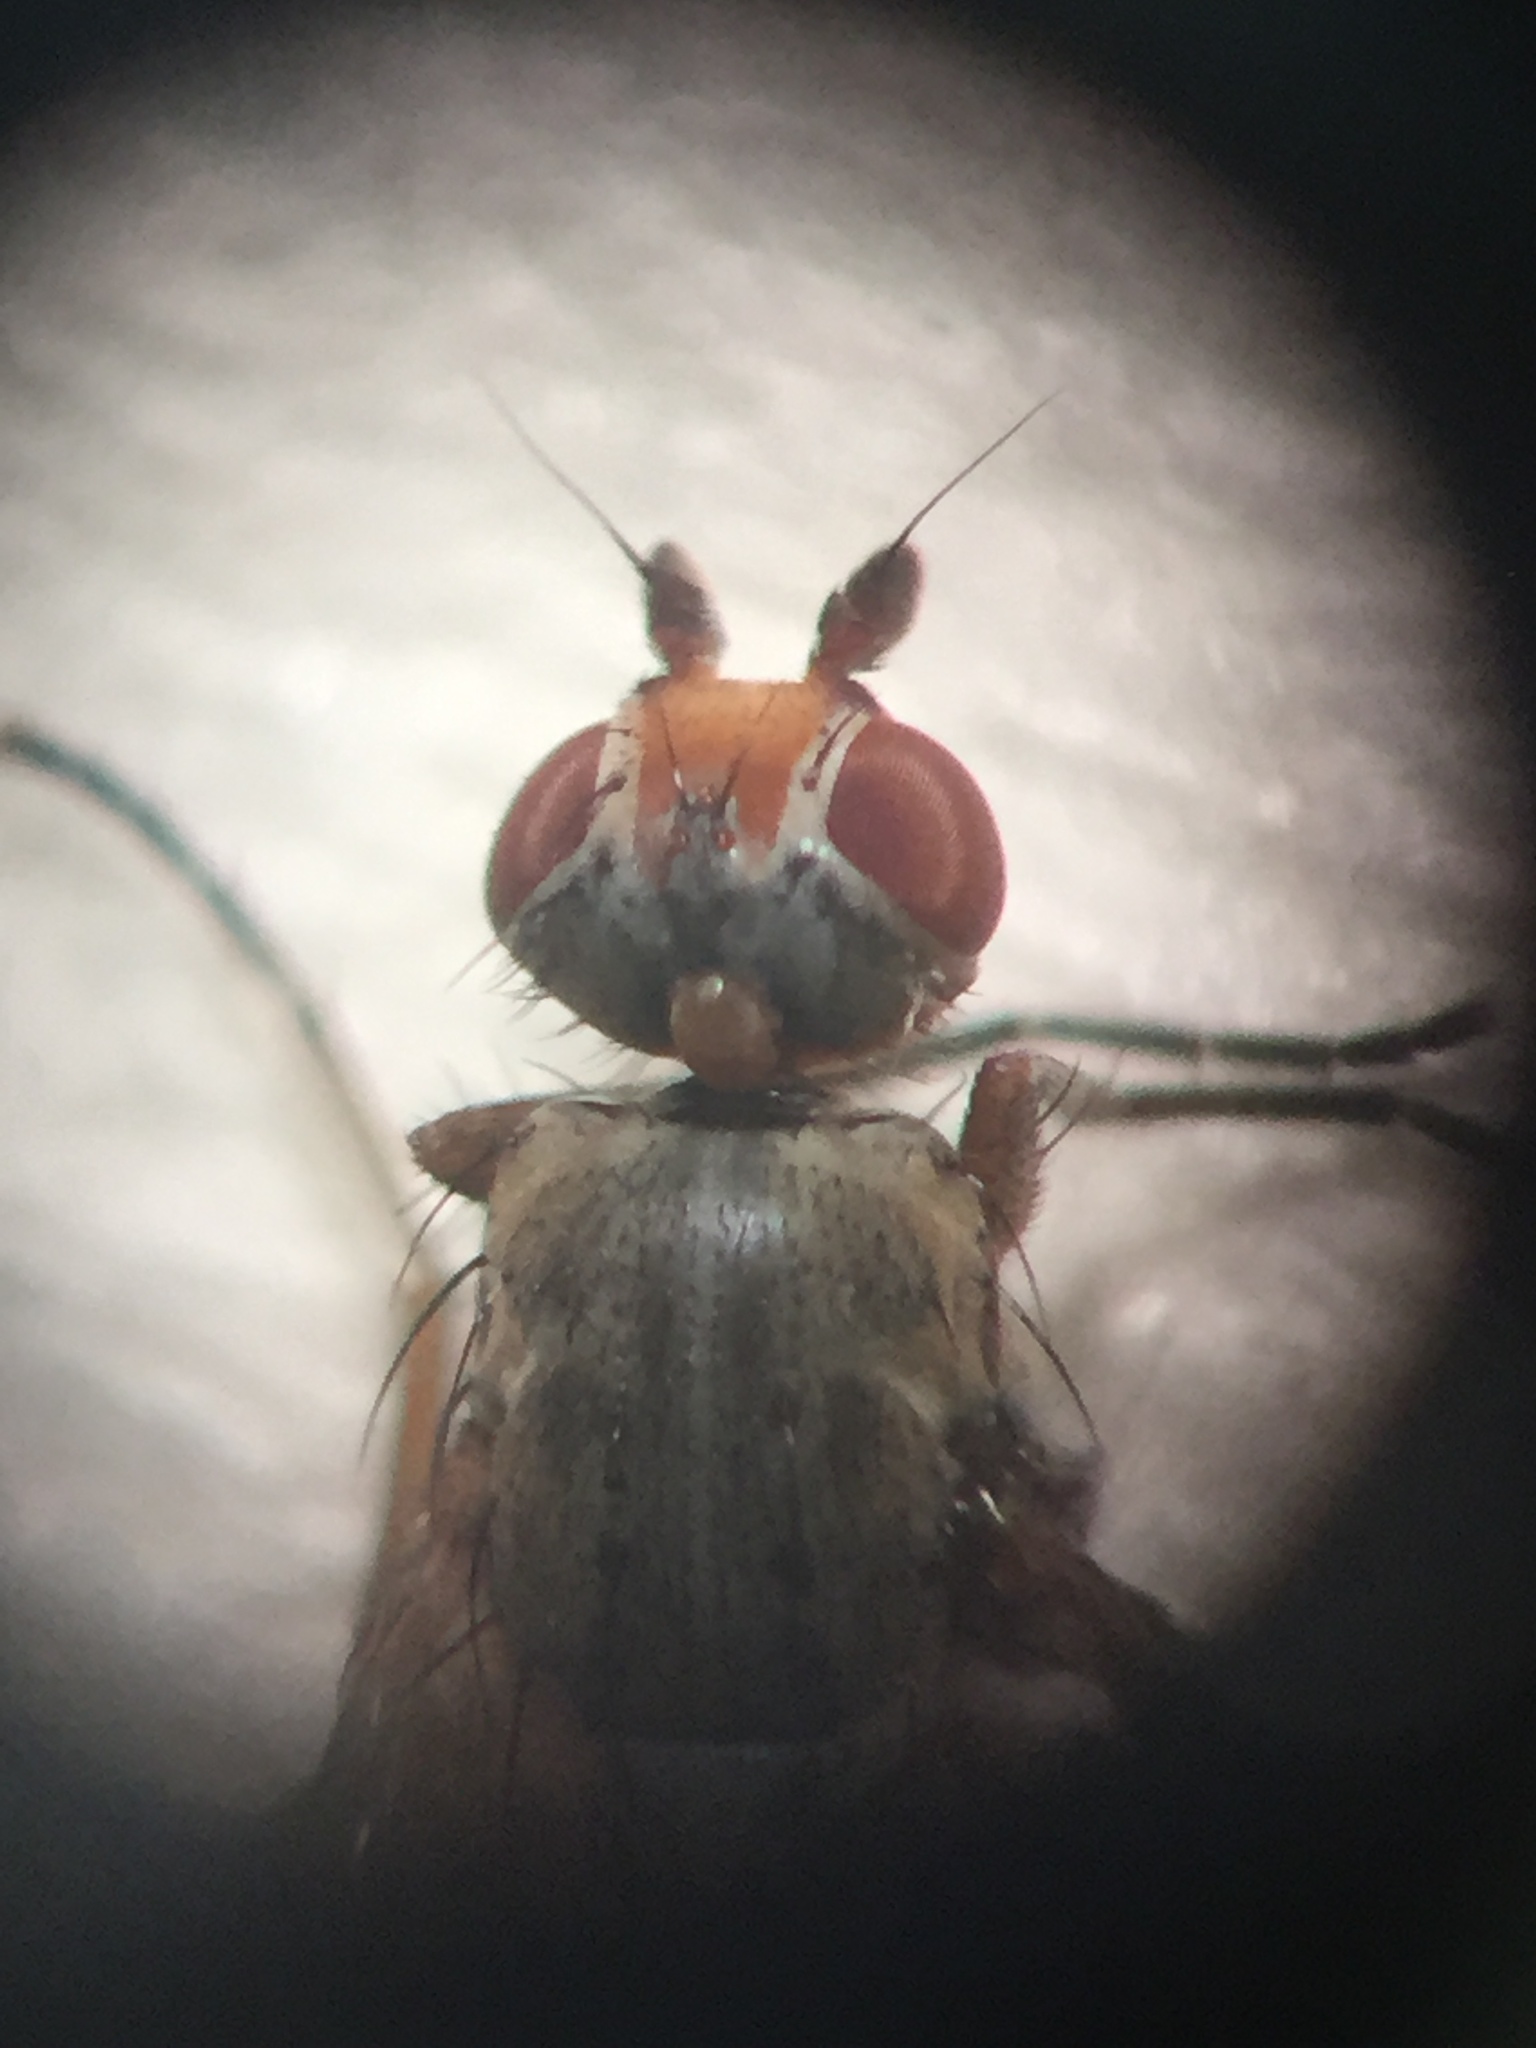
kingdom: Animalia
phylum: Arthropoda
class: Insecta
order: Diptera
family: Heleomyzidae
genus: Tephrochlamys
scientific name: Tephrochlamys rufiventris
